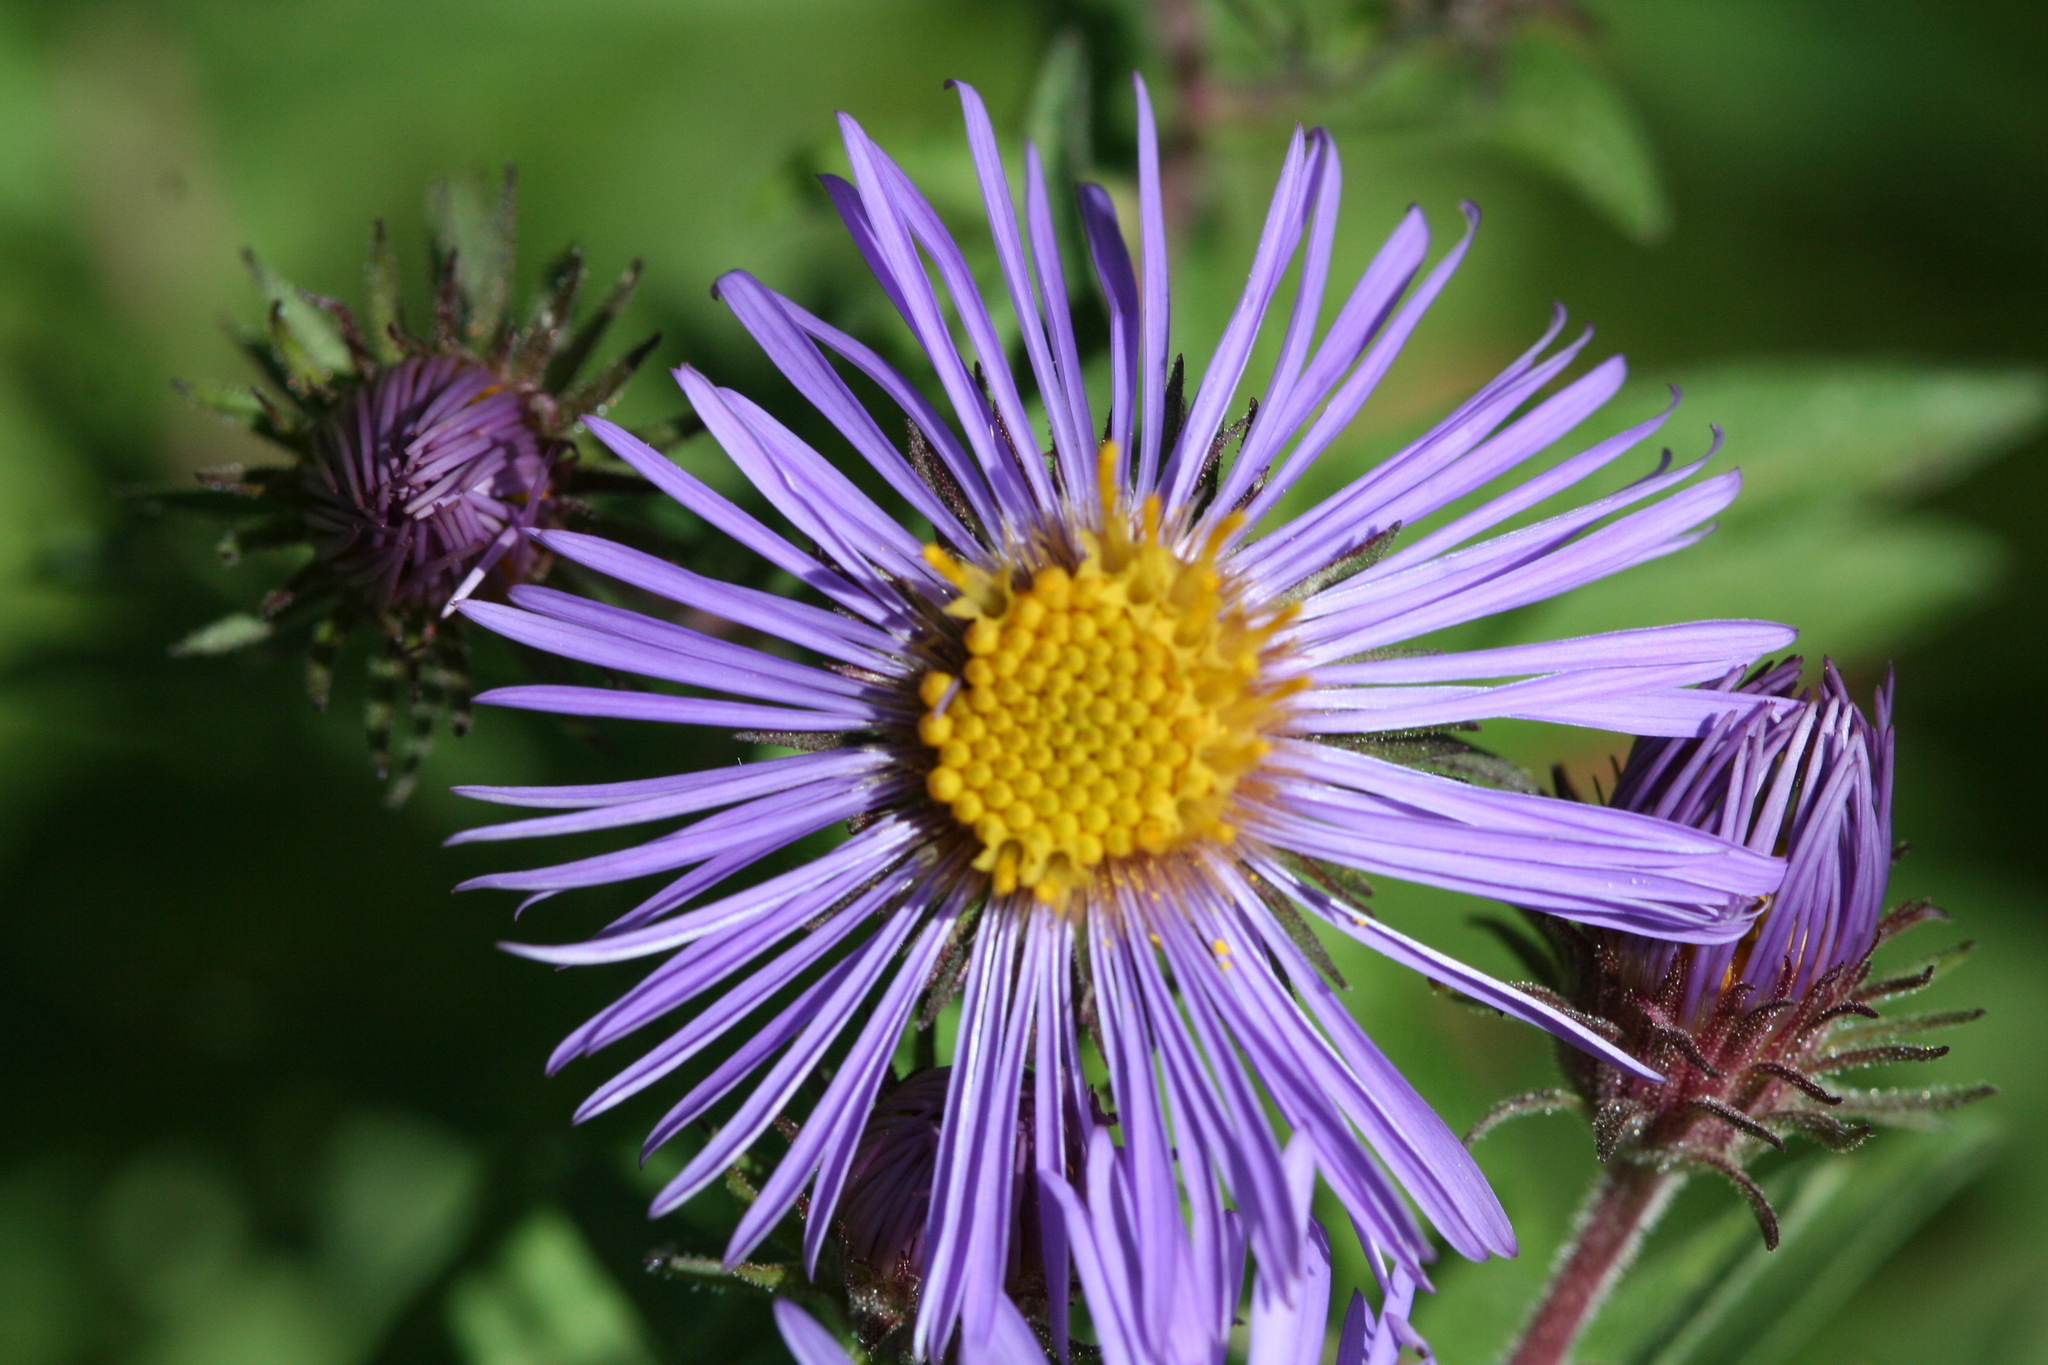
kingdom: Plantae
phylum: Tracheophyta
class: Magnoliopsida
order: Asterales
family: Asteraceae
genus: Symphyotrichum
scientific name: Symphyotrichum novae-angliae
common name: Michaelmas daisy
